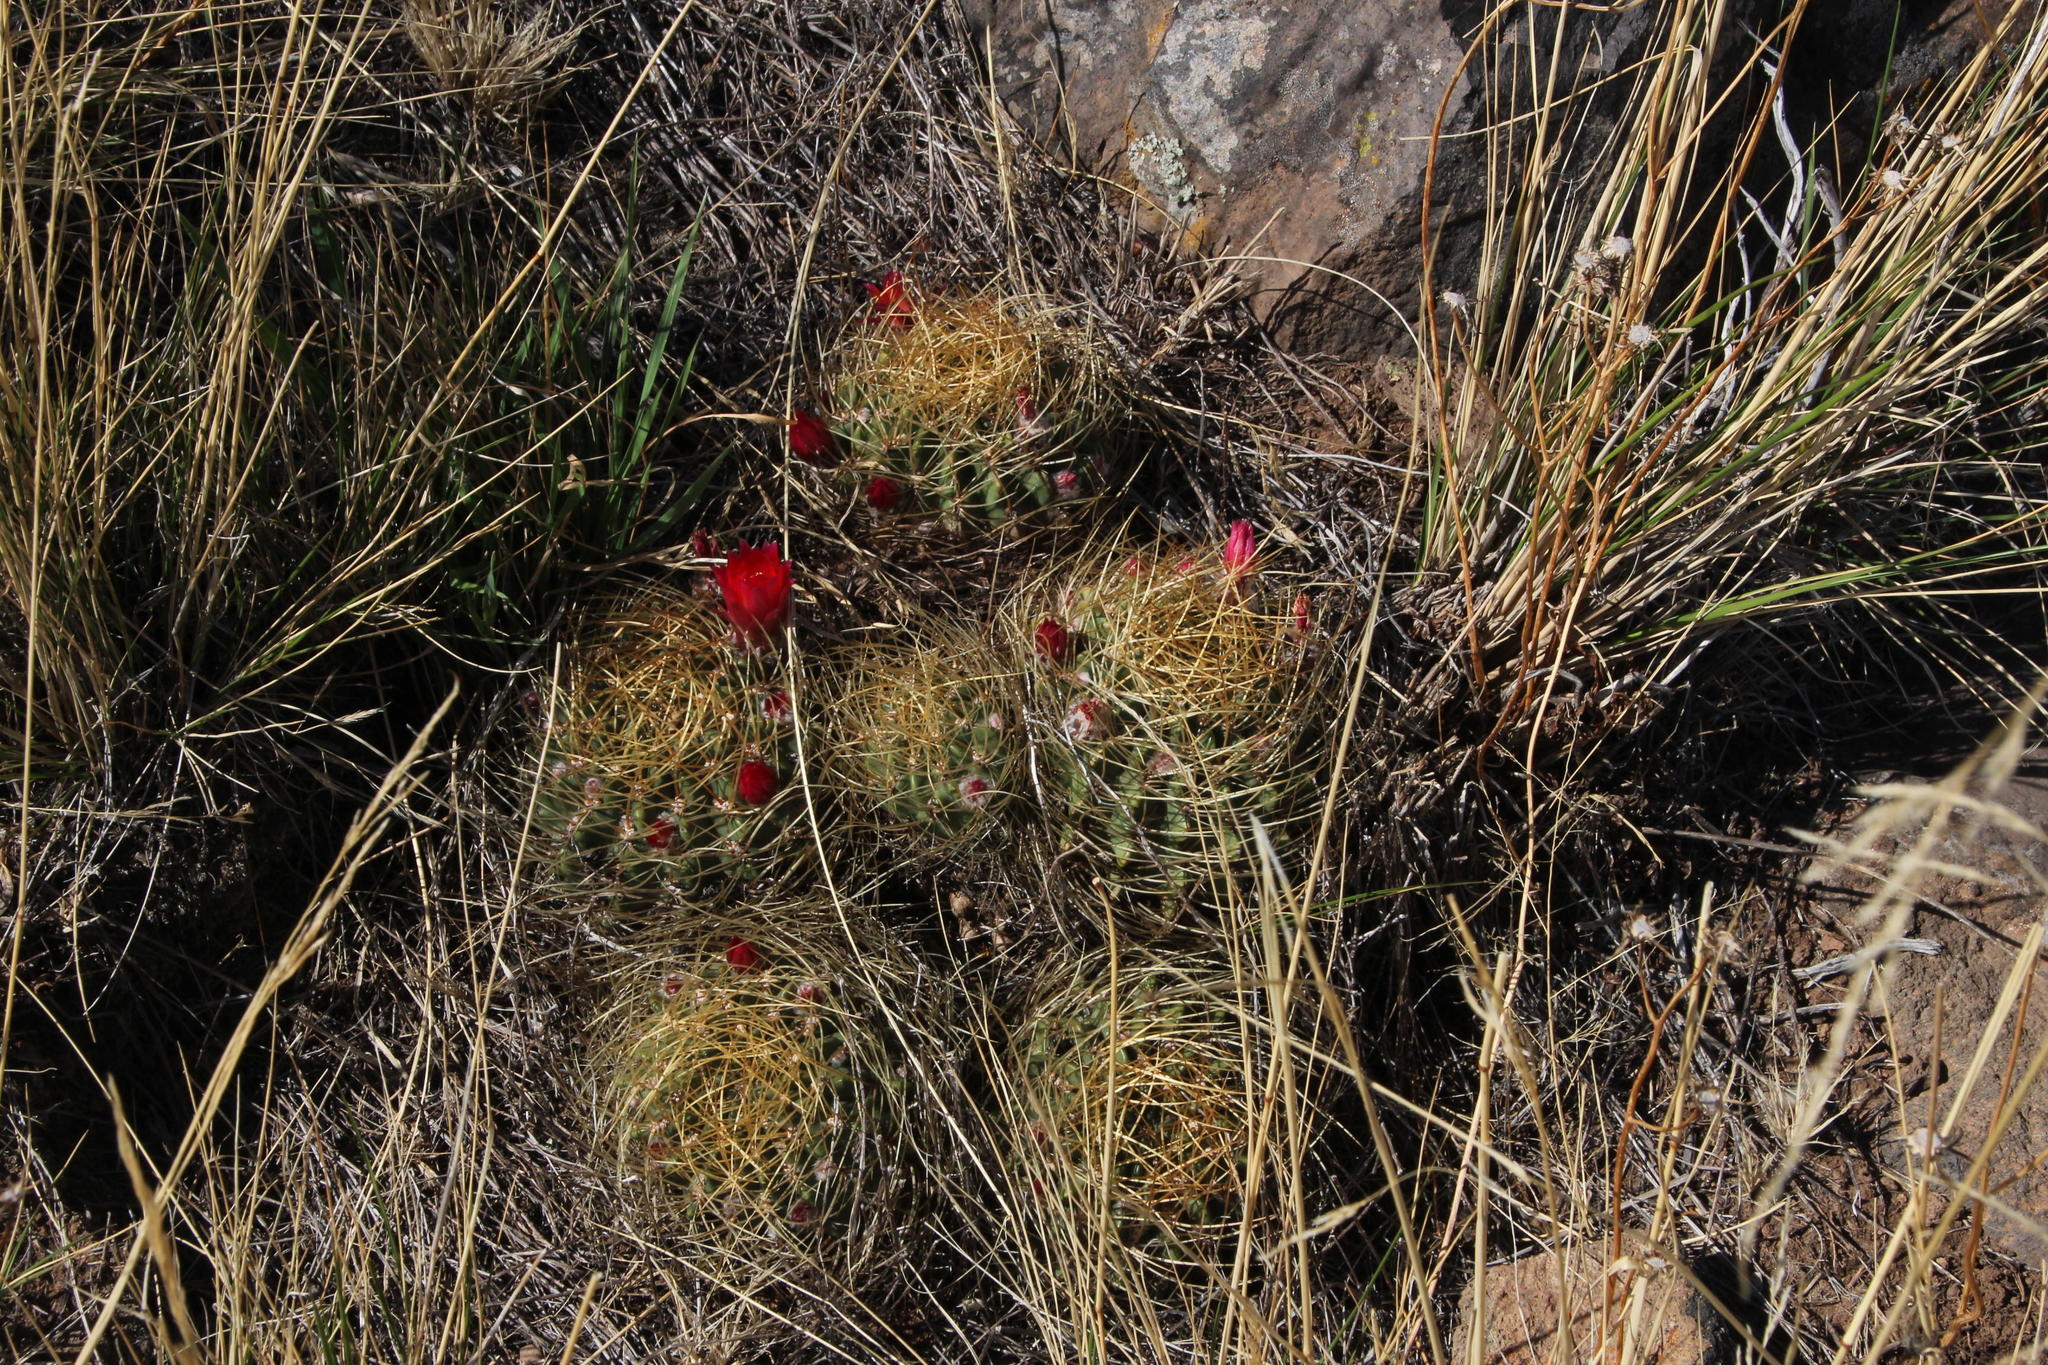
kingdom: Plantae
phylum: Tracheophyta
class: Magnoliopsida
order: Caryophyllales
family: Cactaceae
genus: Lobivia
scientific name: Lobivia maximiliana
